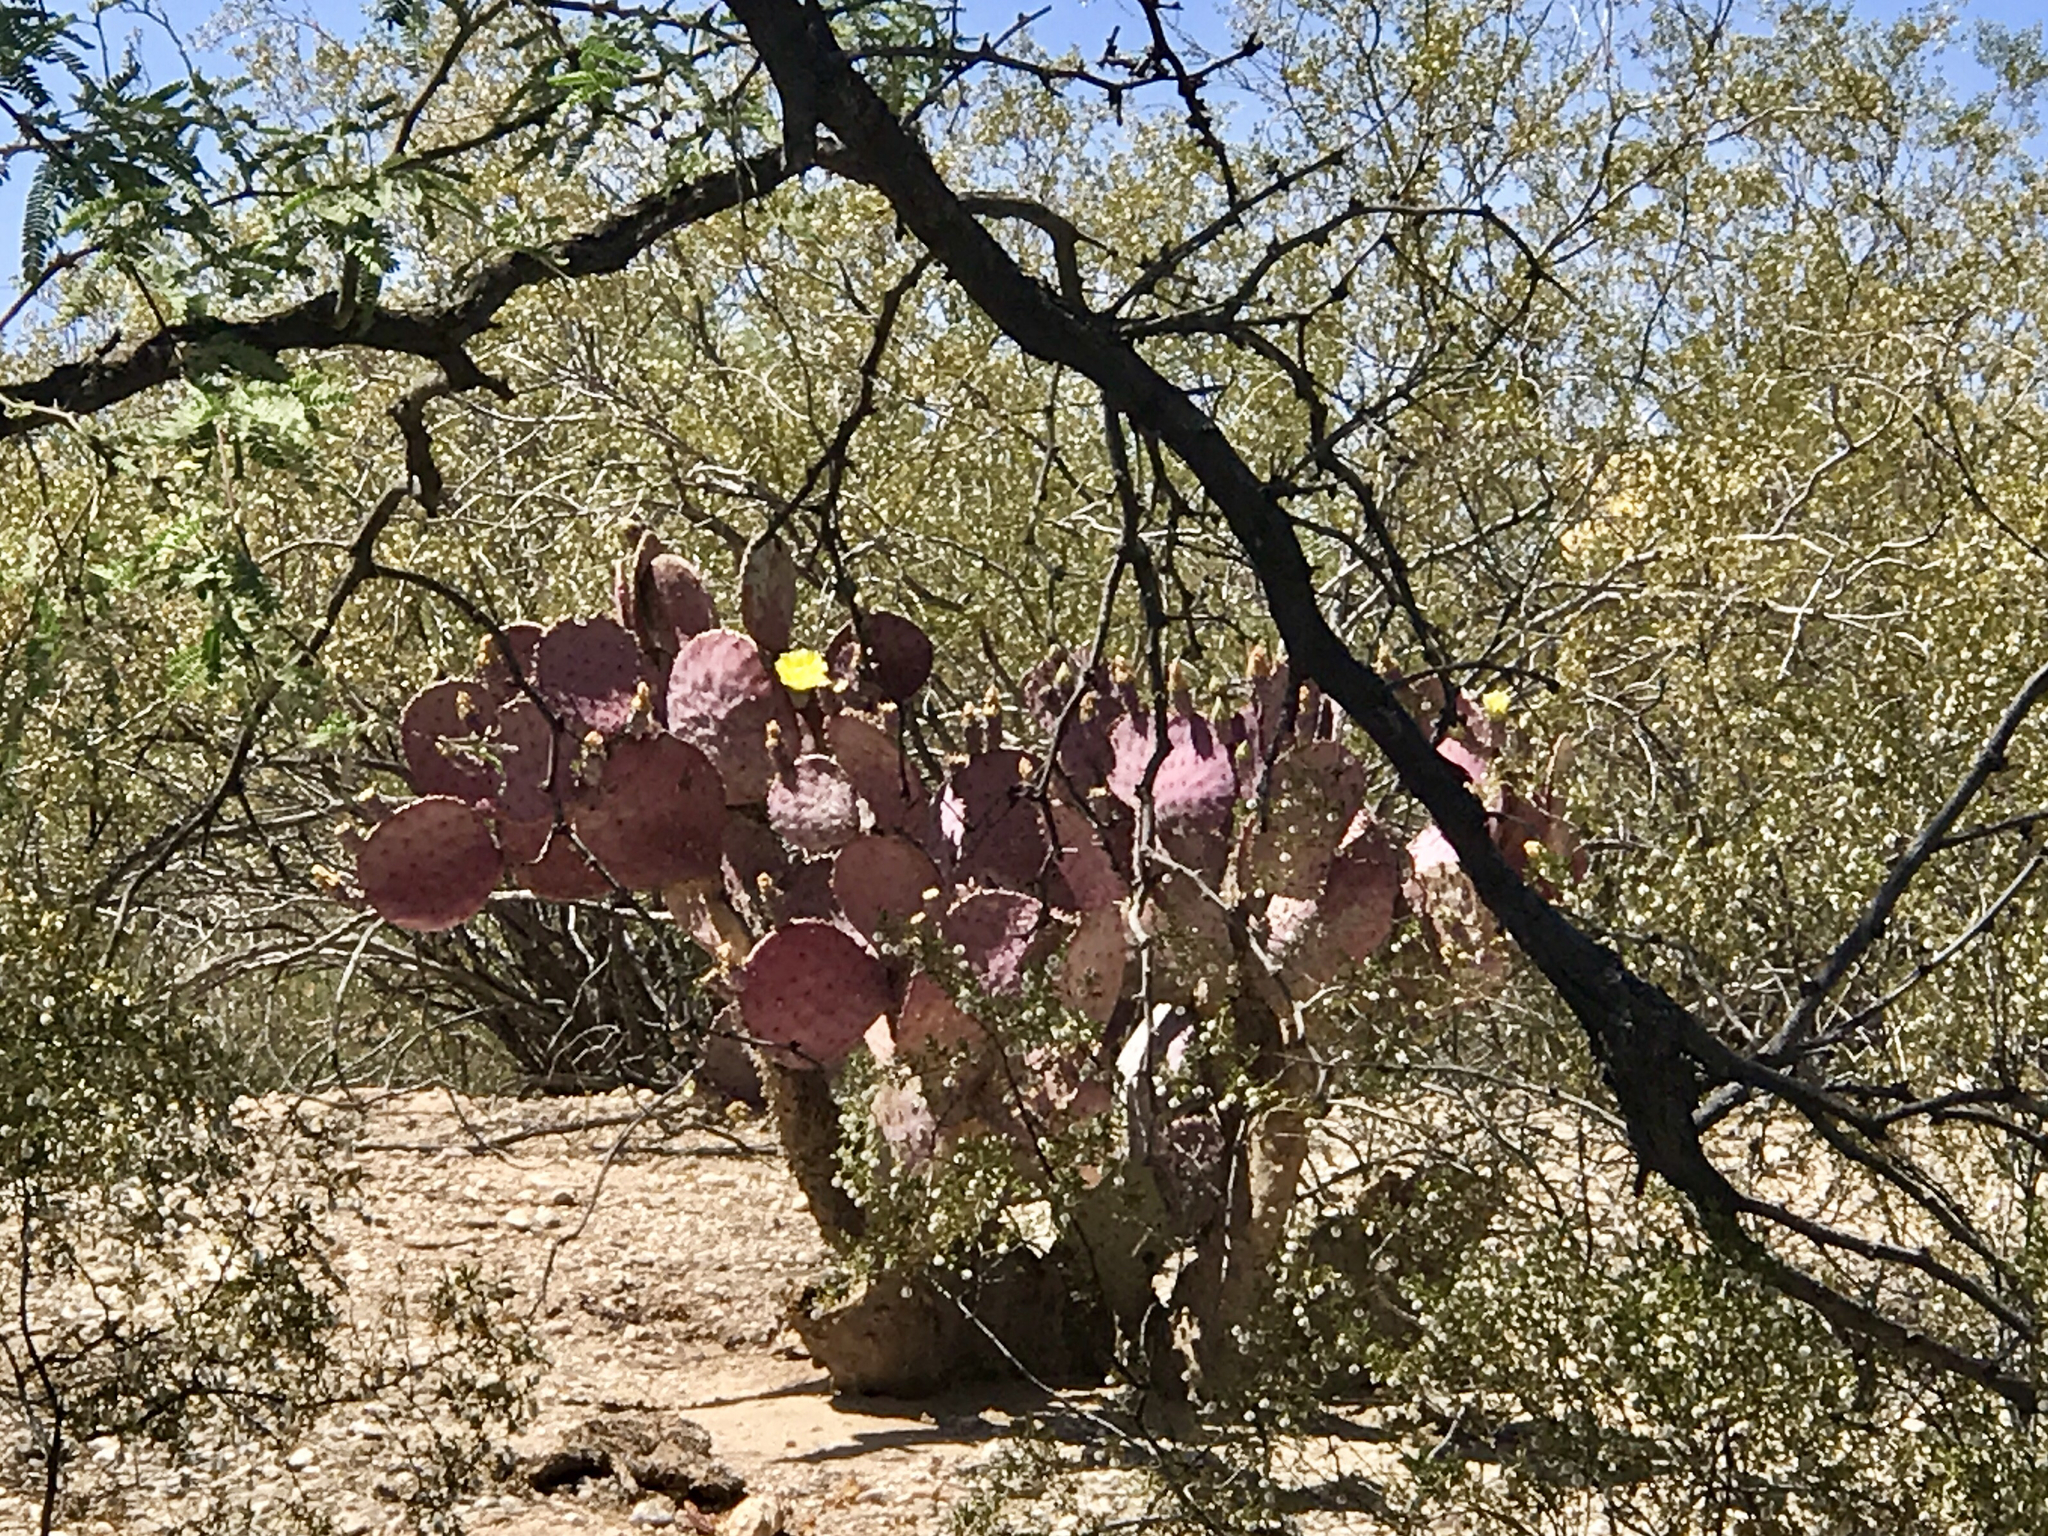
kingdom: Plantae
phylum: Tracheophyta
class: Magnoliopsida
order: Caryophyllales
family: Cactaceae
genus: Opuntia
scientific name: Opuntia gosseliniana
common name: Violet prickly-pear
